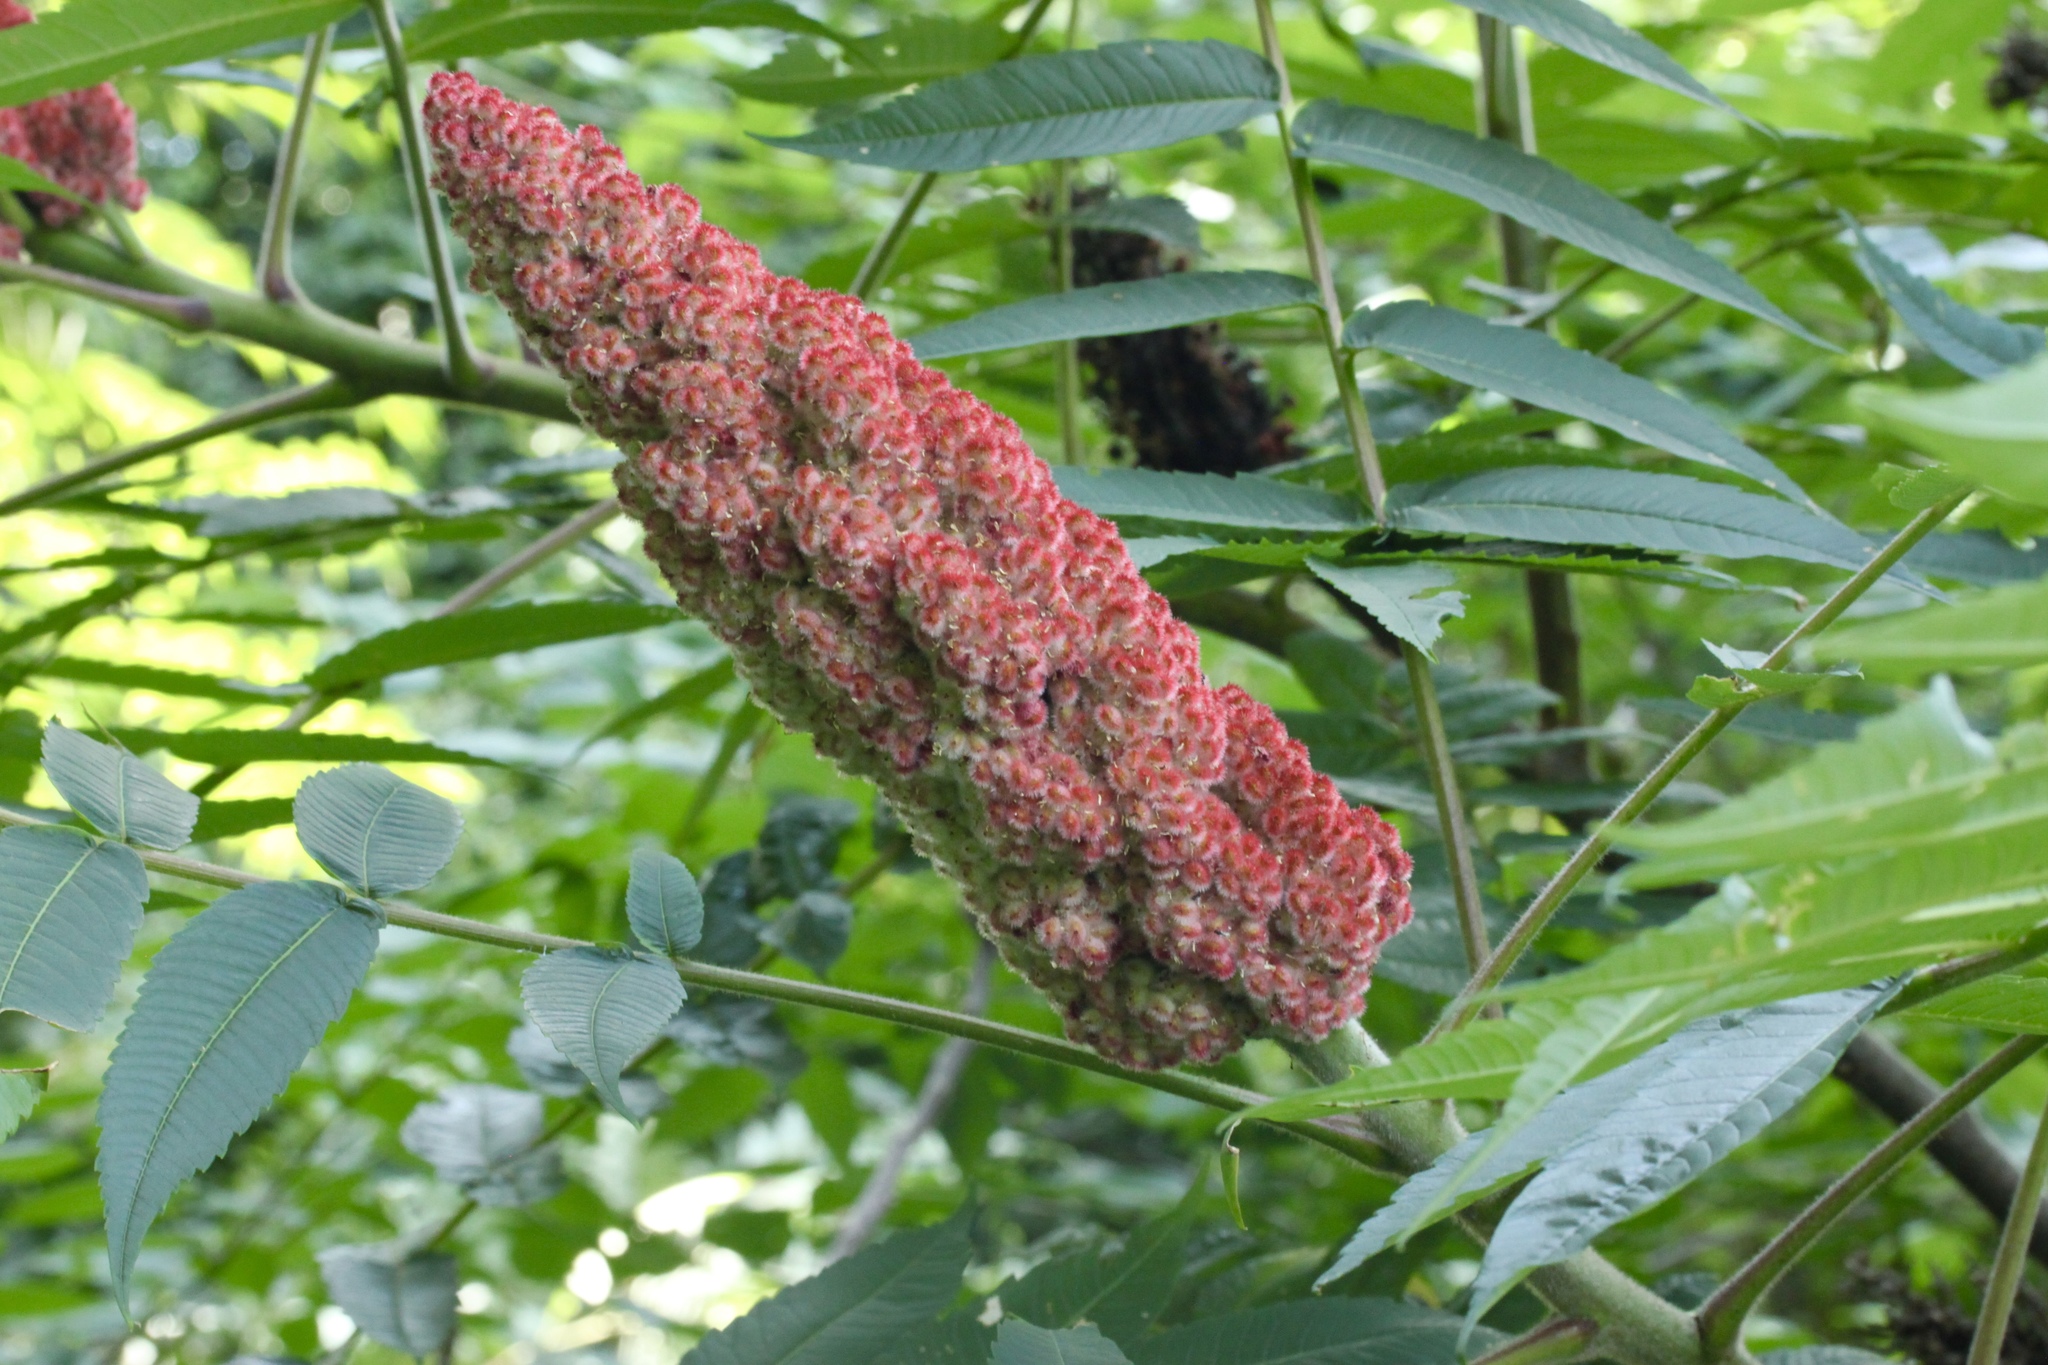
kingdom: Plantae
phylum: Tracheophyta
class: Magnoliopsida
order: Sapindales
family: Anacardiaceae
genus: Rhus
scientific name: Rhus typhina
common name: Staghorn sumac
